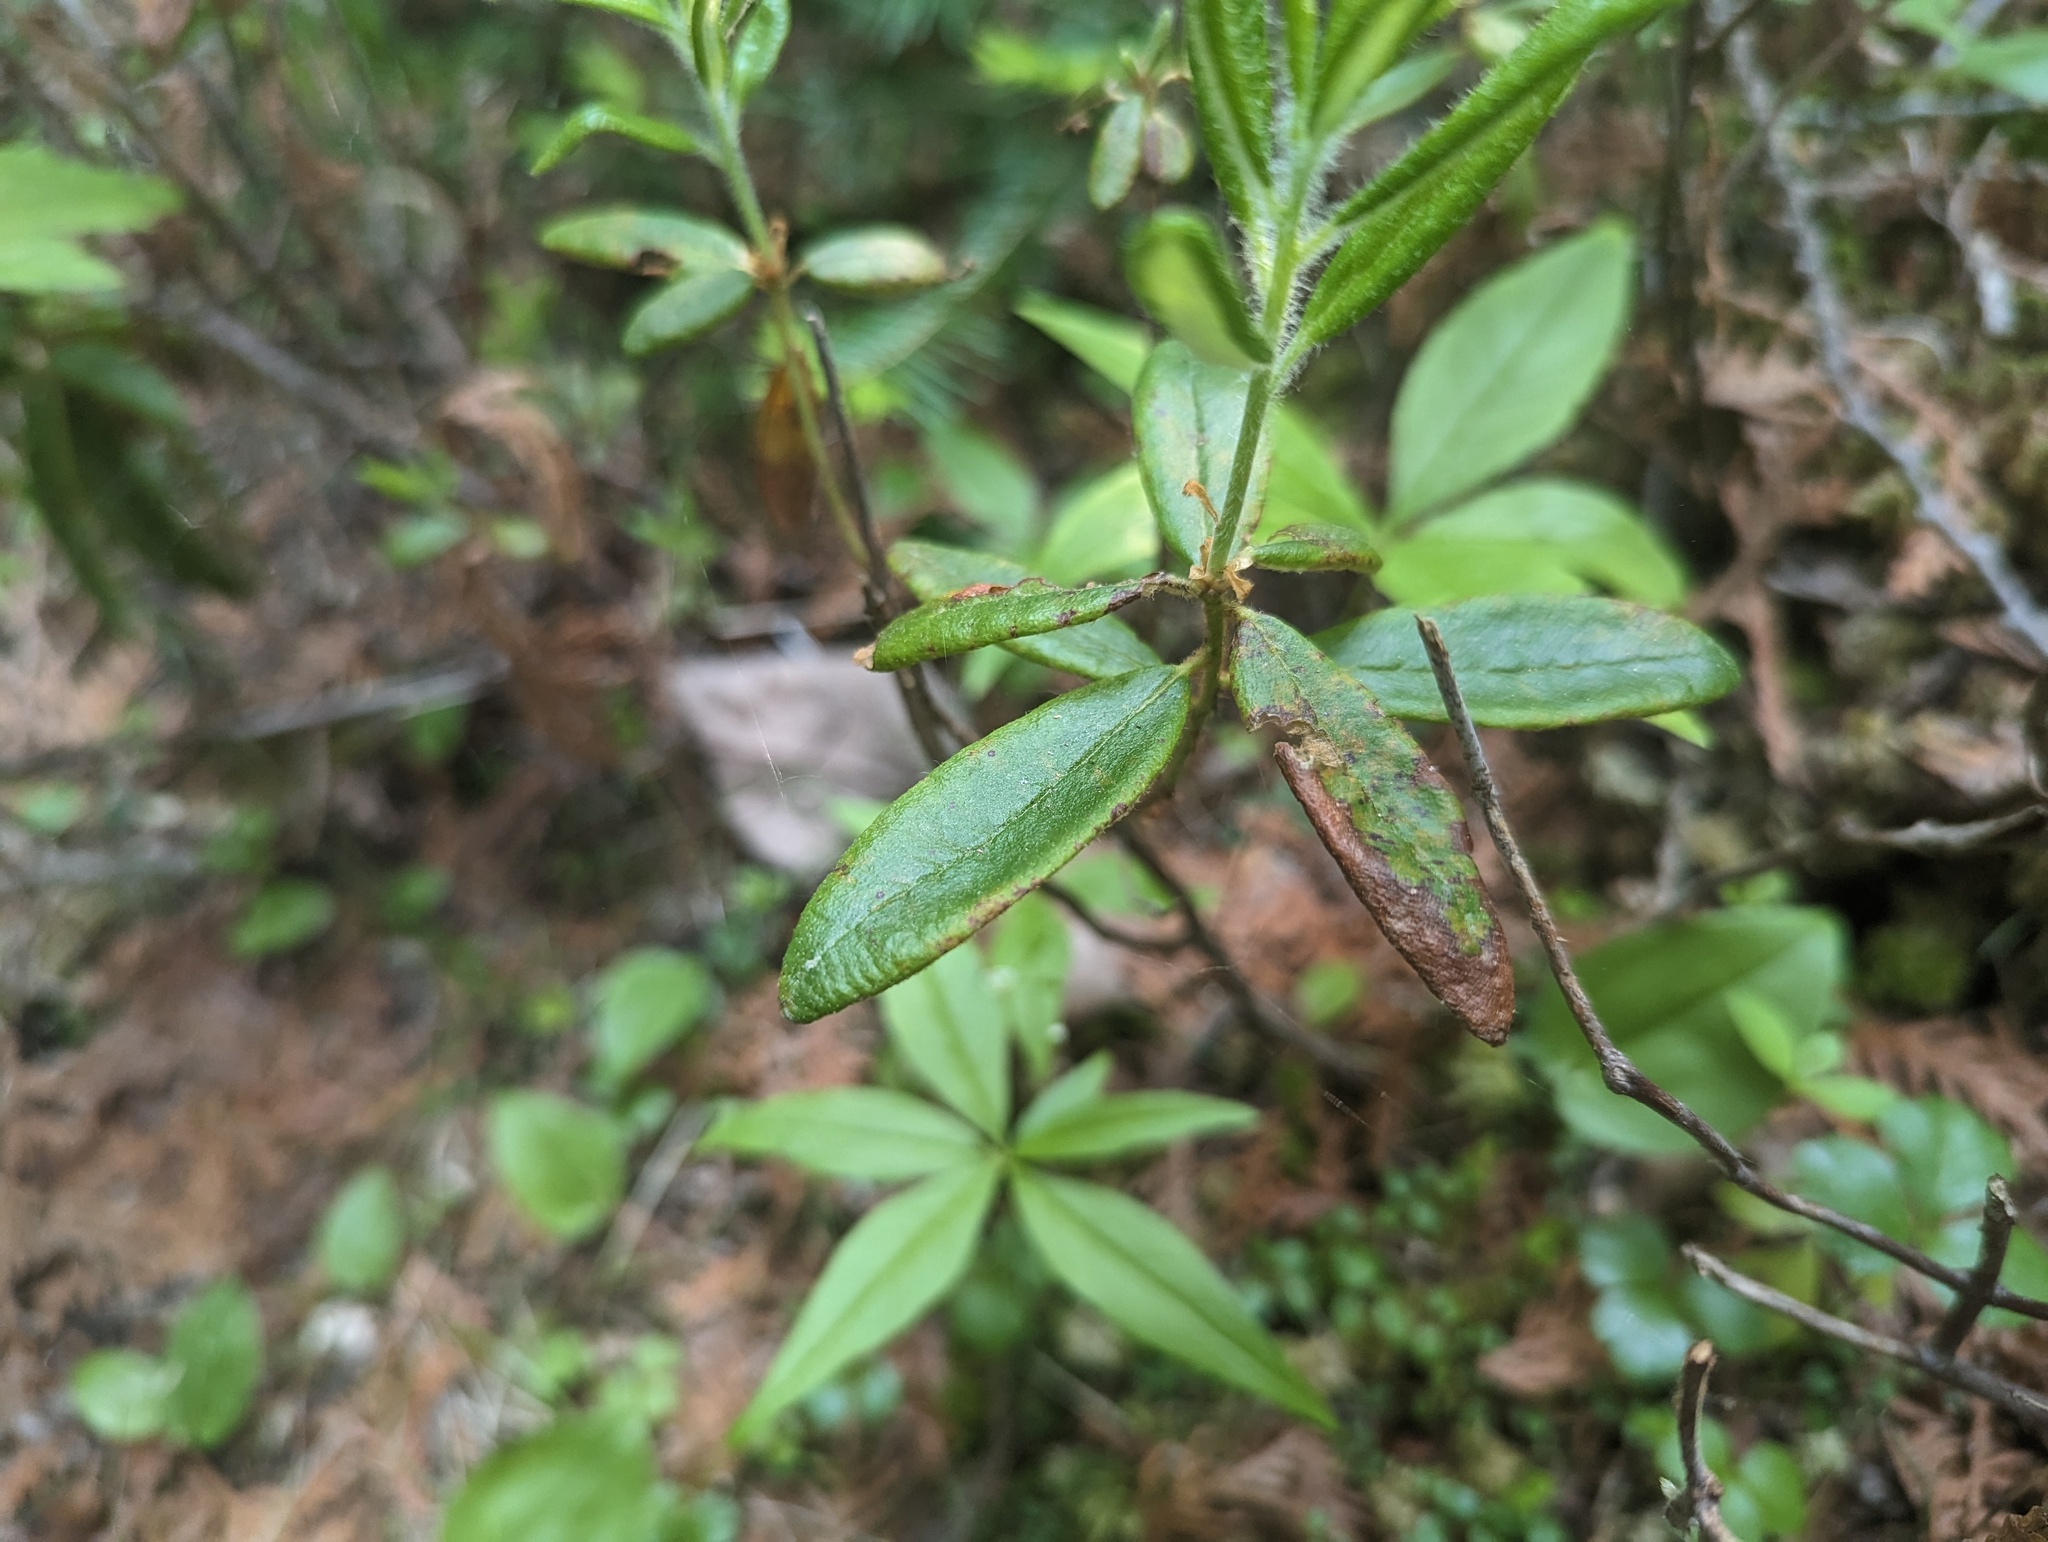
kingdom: Plantae
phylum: Tracheophyta
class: Magnoliopsida
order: Ericales
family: Ericaceae
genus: Rhododendron
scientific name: Rhododendron groenlandicum
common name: Bog labrador tea
